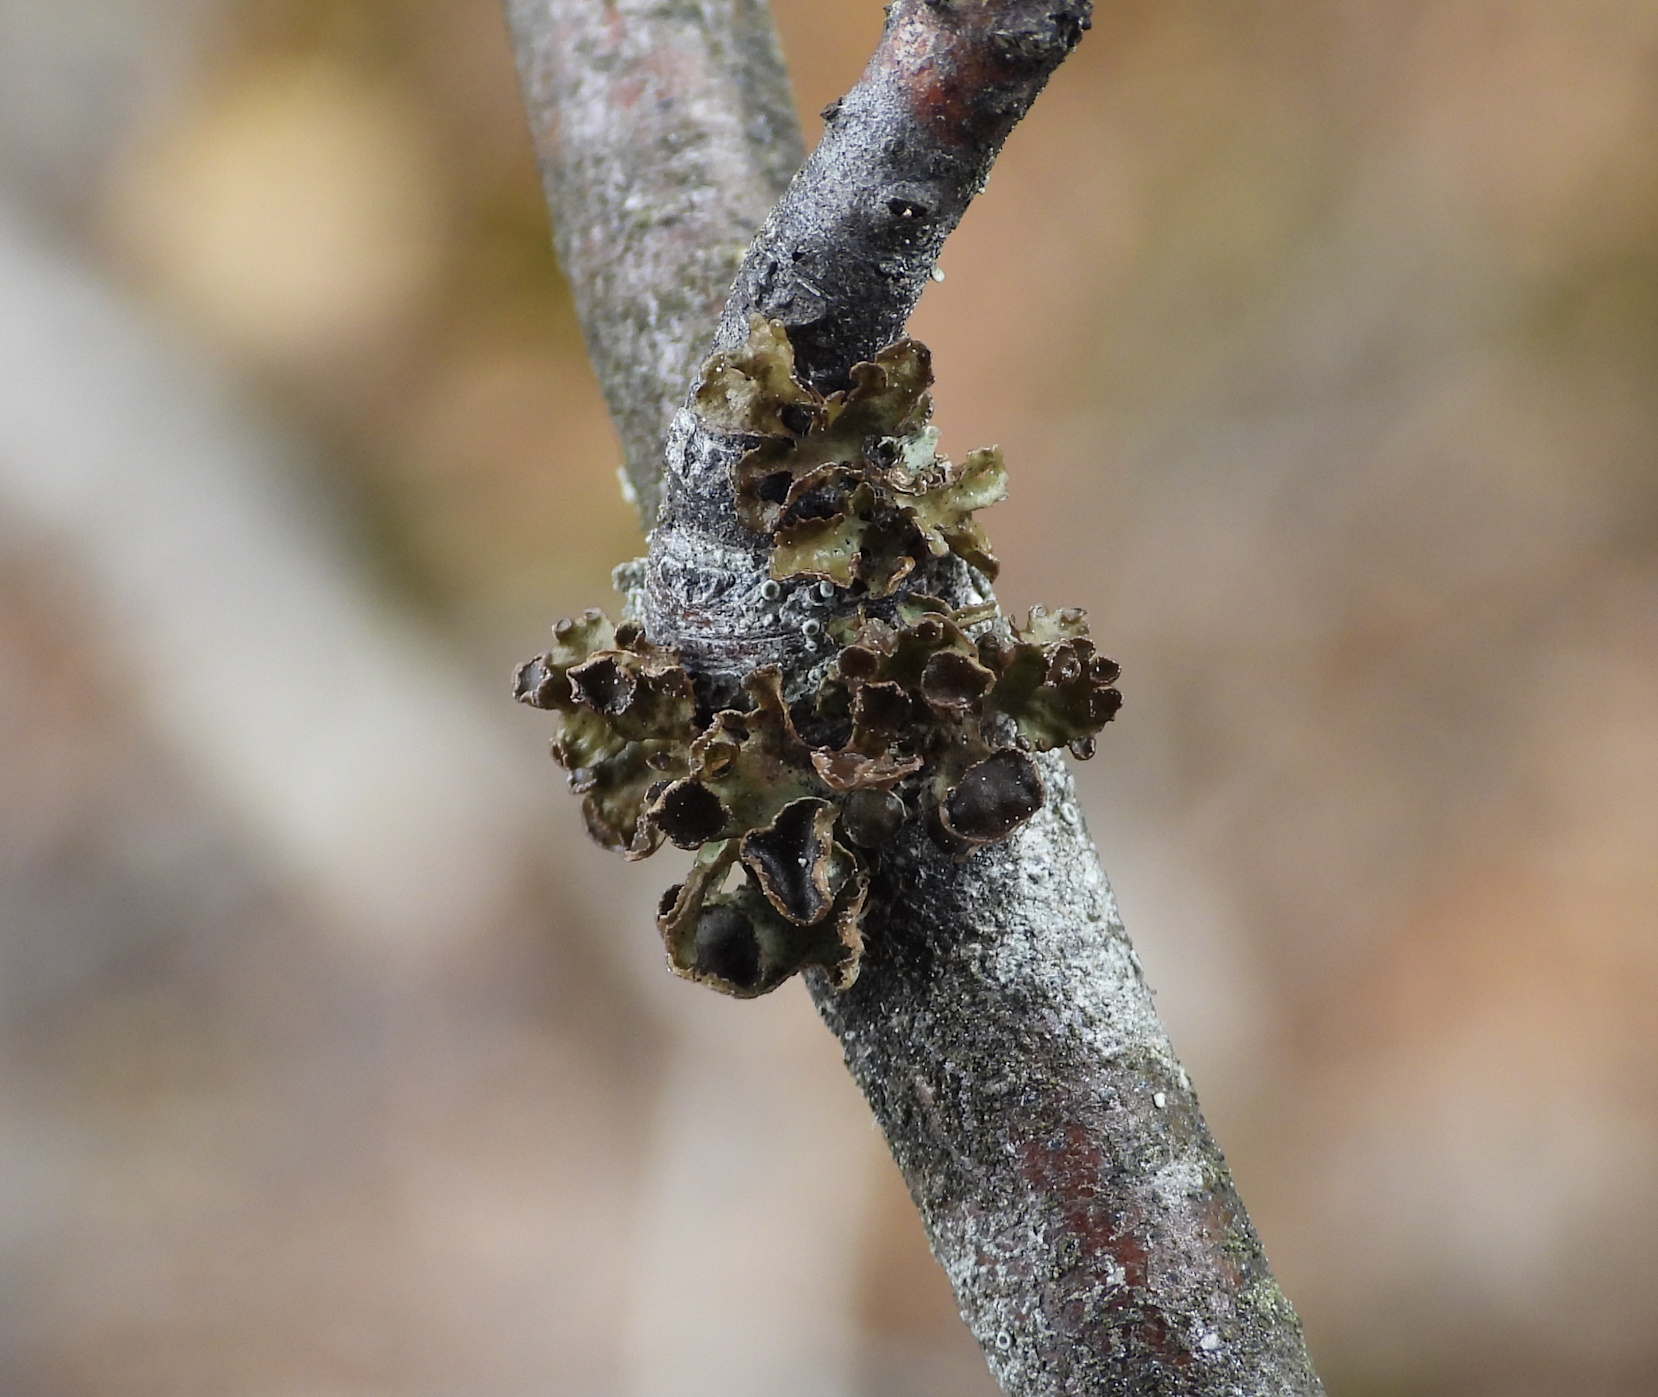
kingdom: Fungi
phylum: Ascomycota
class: Lecanoromycetes
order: Lecanorales
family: Parmeliaceae
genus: Cetraria
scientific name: Cetraria sepincola
